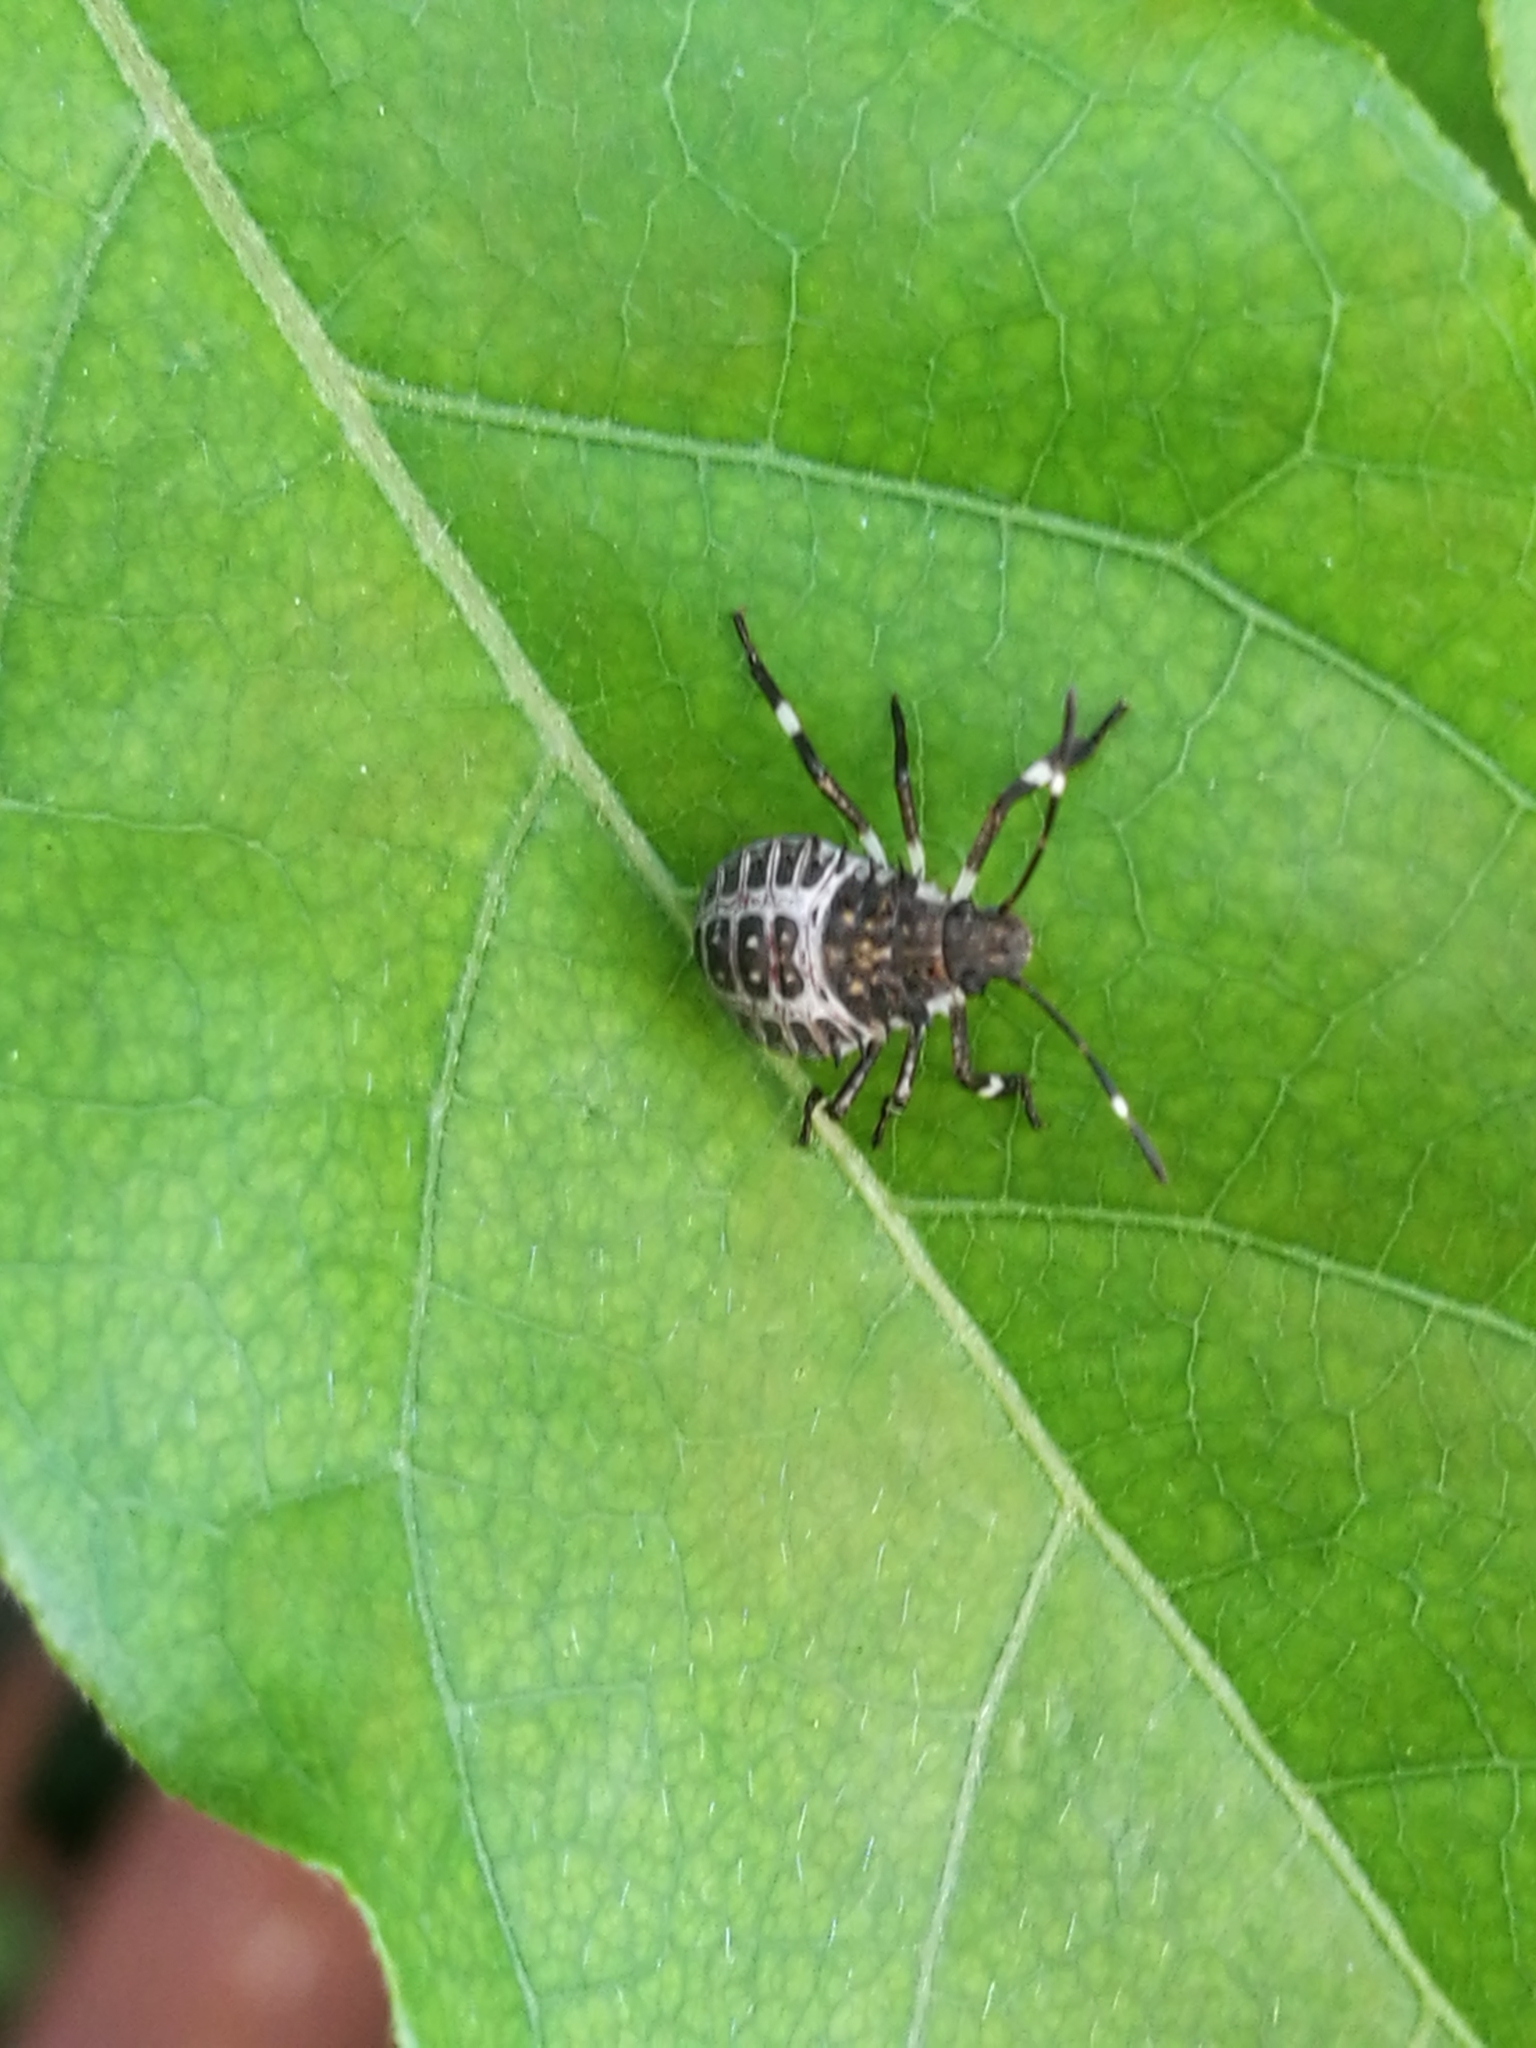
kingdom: Animalia
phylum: Arthropoda
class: Insecta
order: Hemiptera
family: Pentatomidae
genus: Halyomorpha
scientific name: Halyomorpha halys
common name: Brown marmorated stink bug
